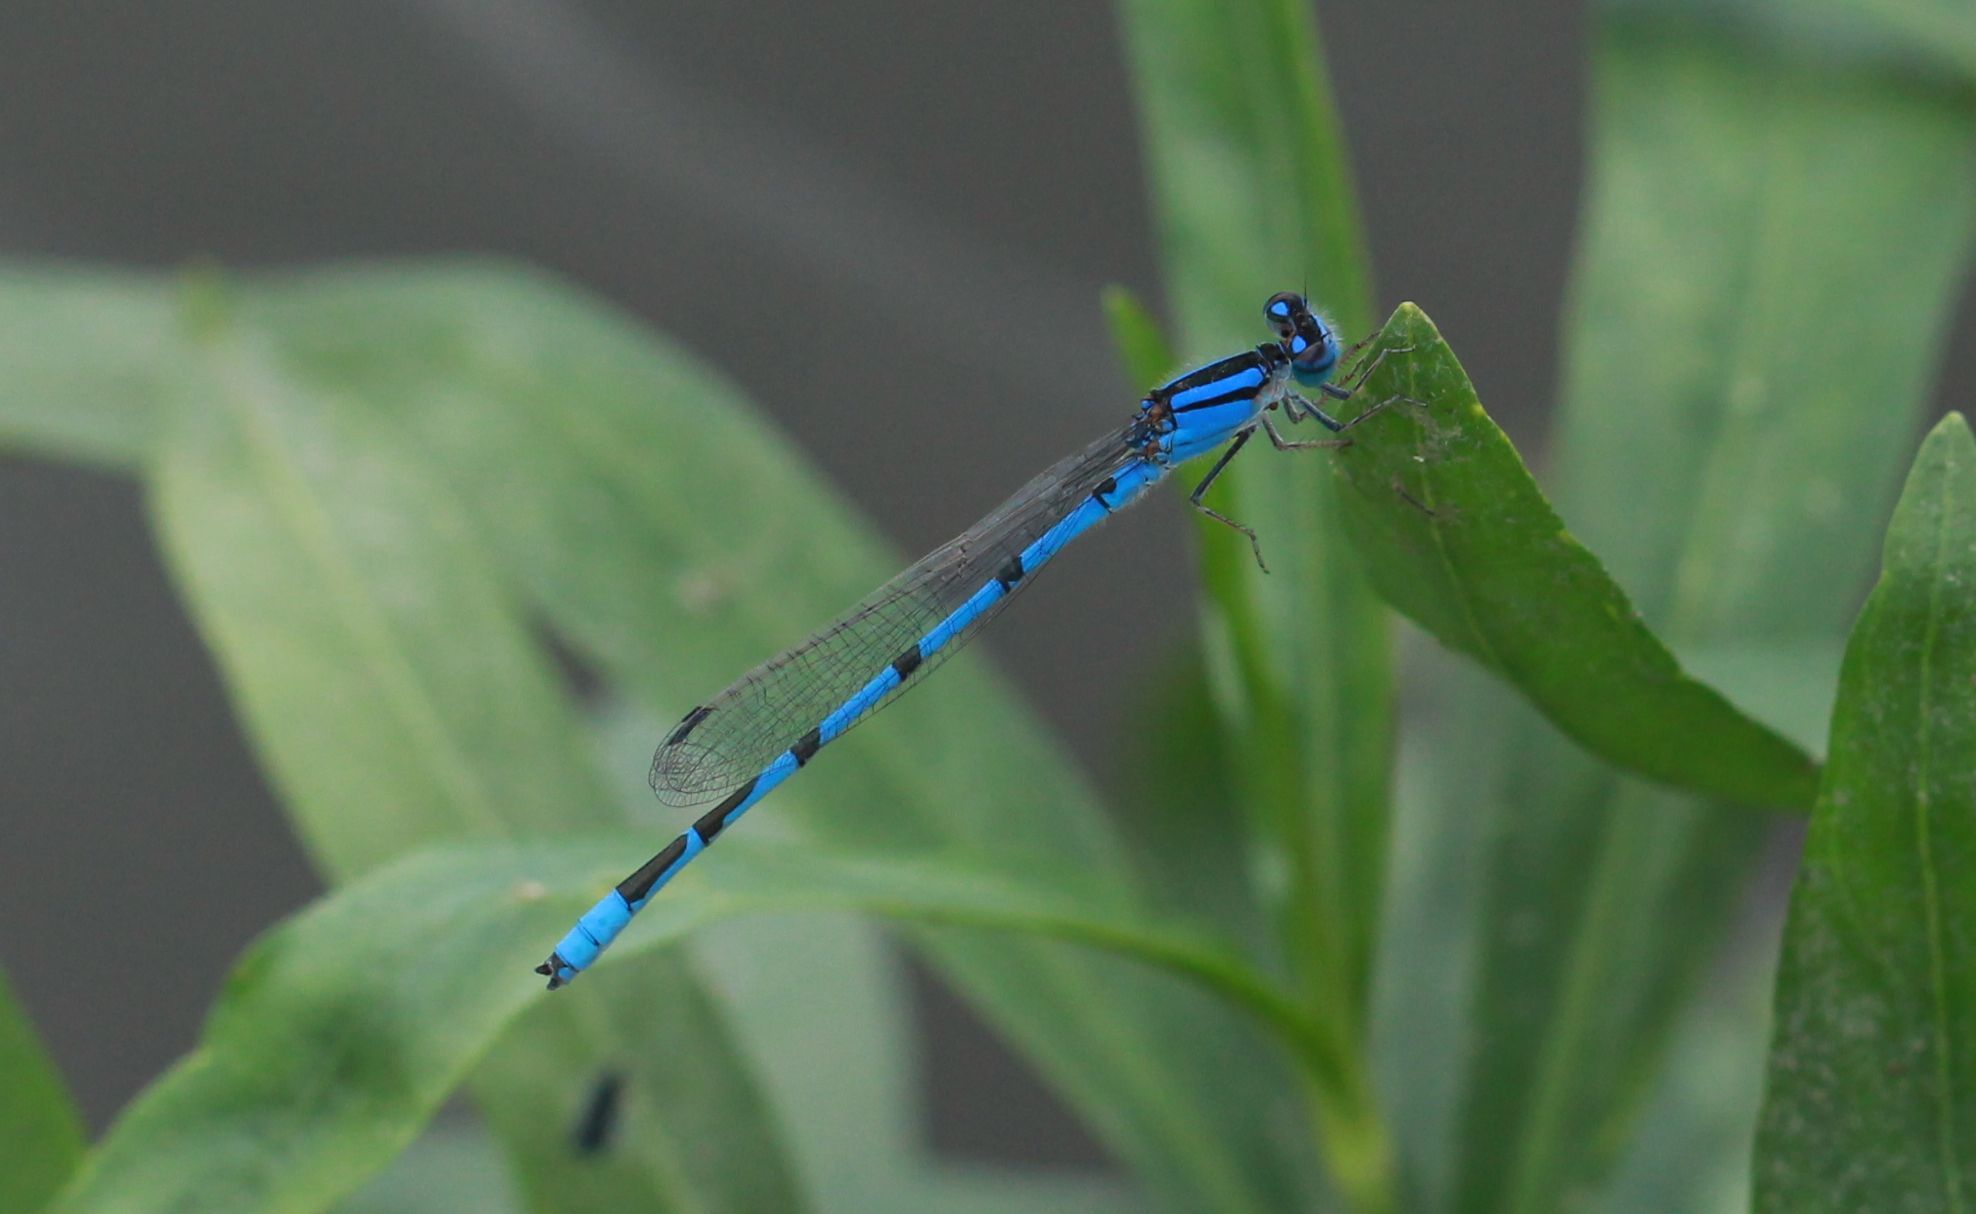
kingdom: Animalia
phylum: Arthropoda
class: Insecta
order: Odonata
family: Coenagrionidae
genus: Enallagma
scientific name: Enallagma civile
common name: Damselfly
